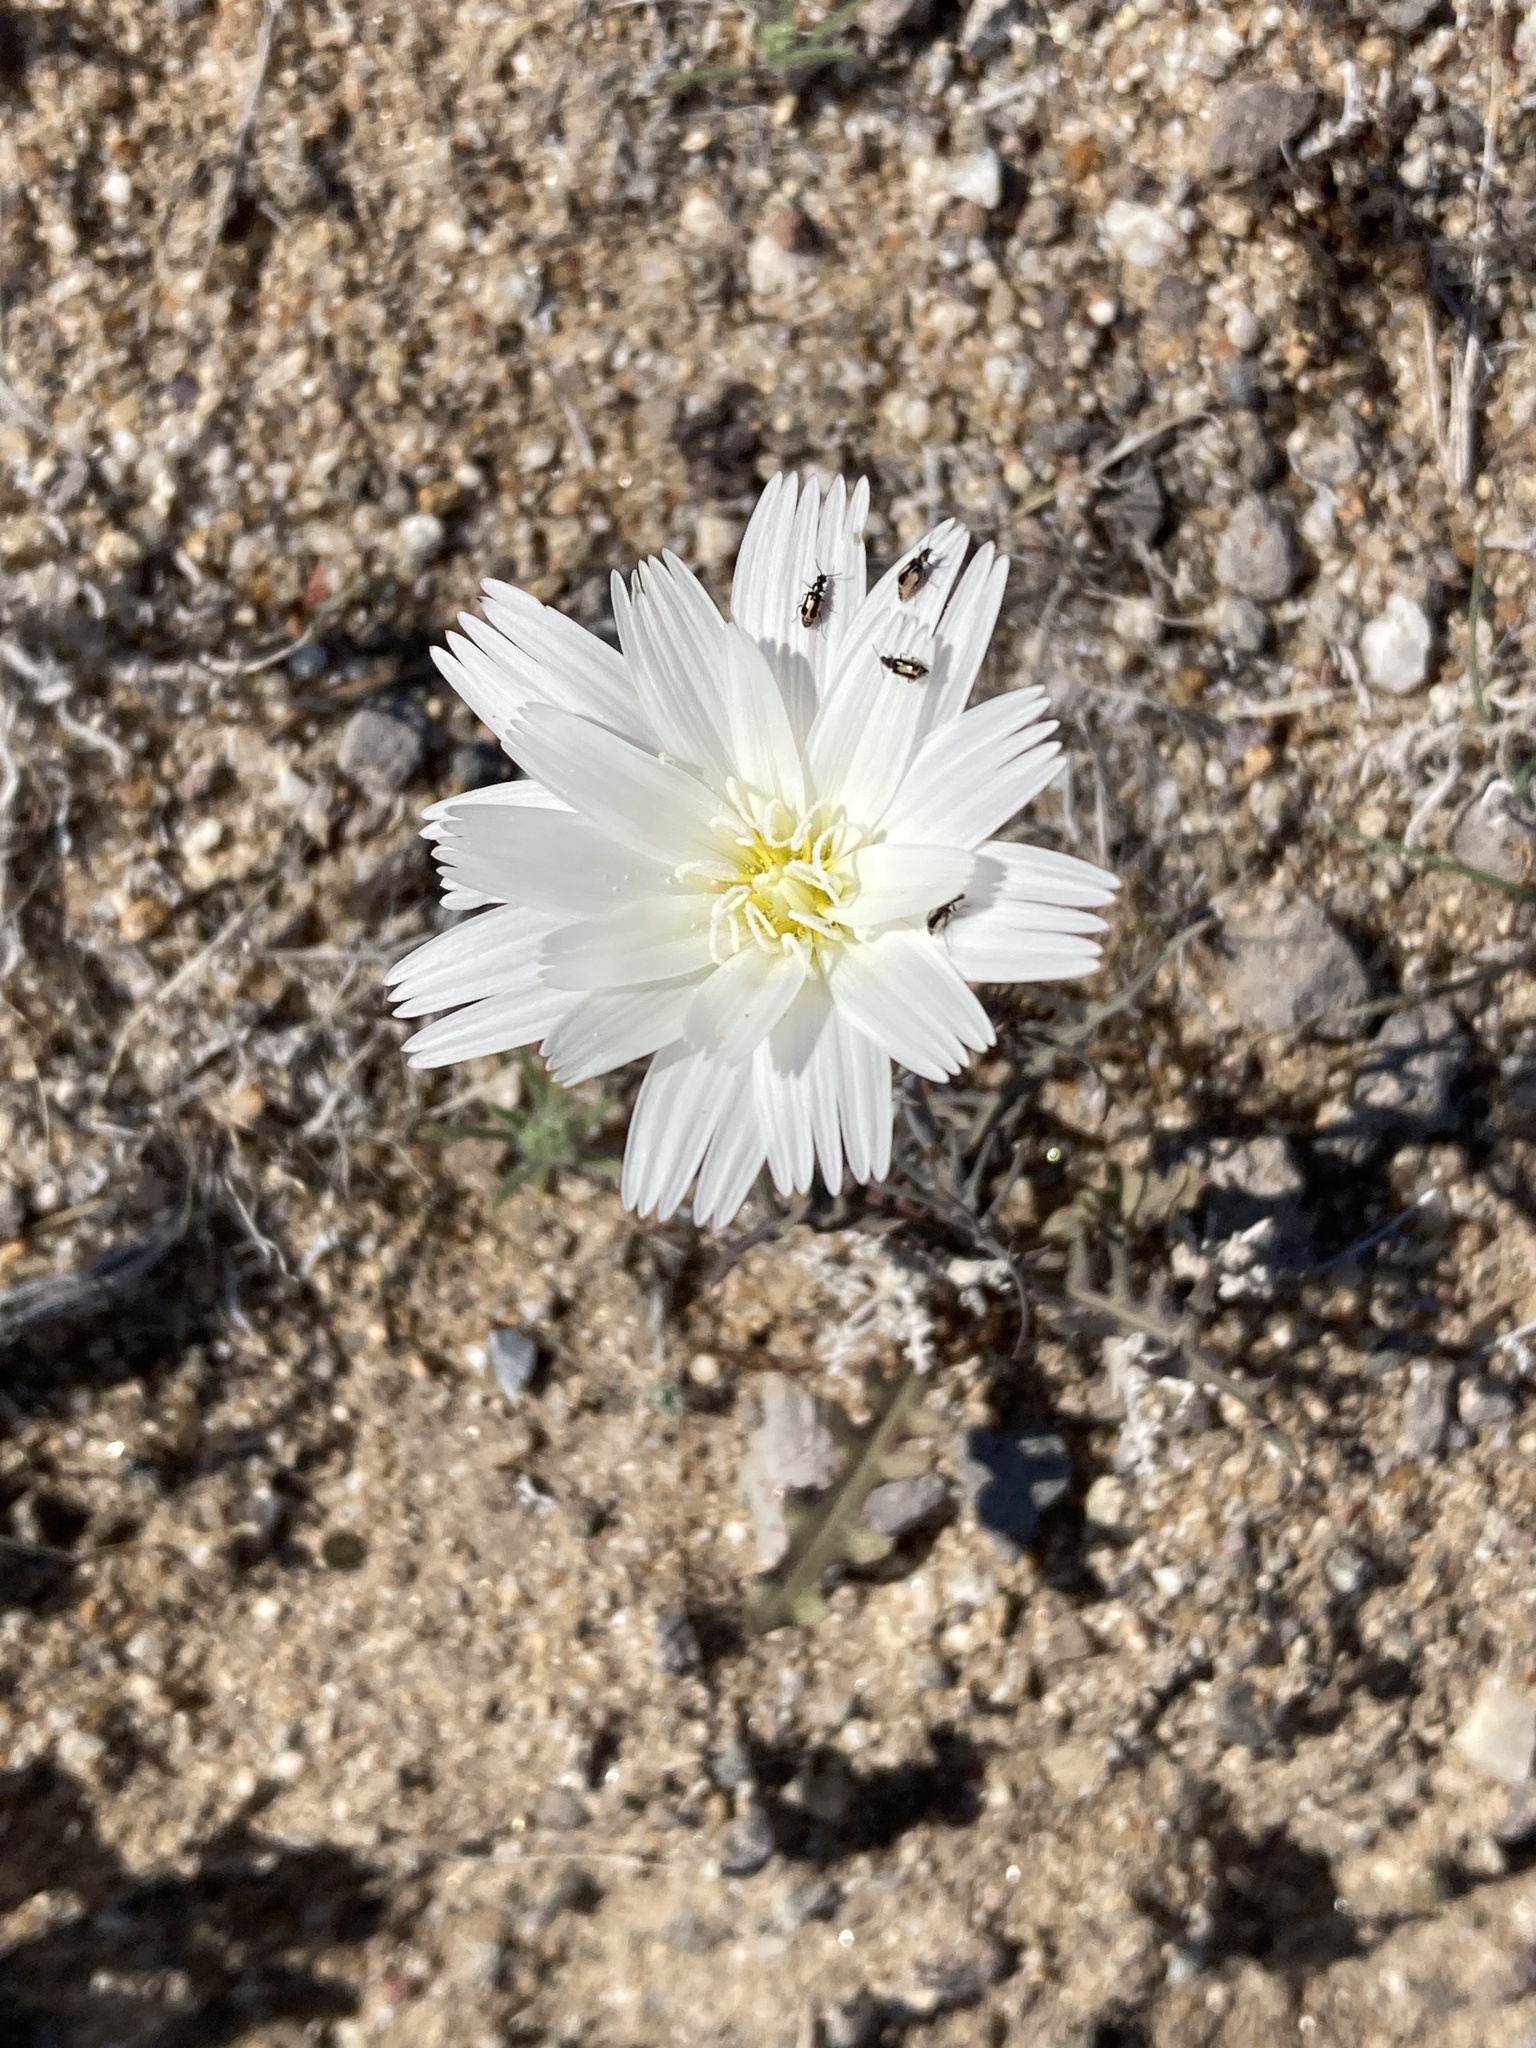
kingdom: Plantae
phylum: Tracheophyta
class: Magnoliopsida
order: Asterales
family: Asteraceae
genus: Rafinesquia
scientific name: Rafinesquia neomexicana
